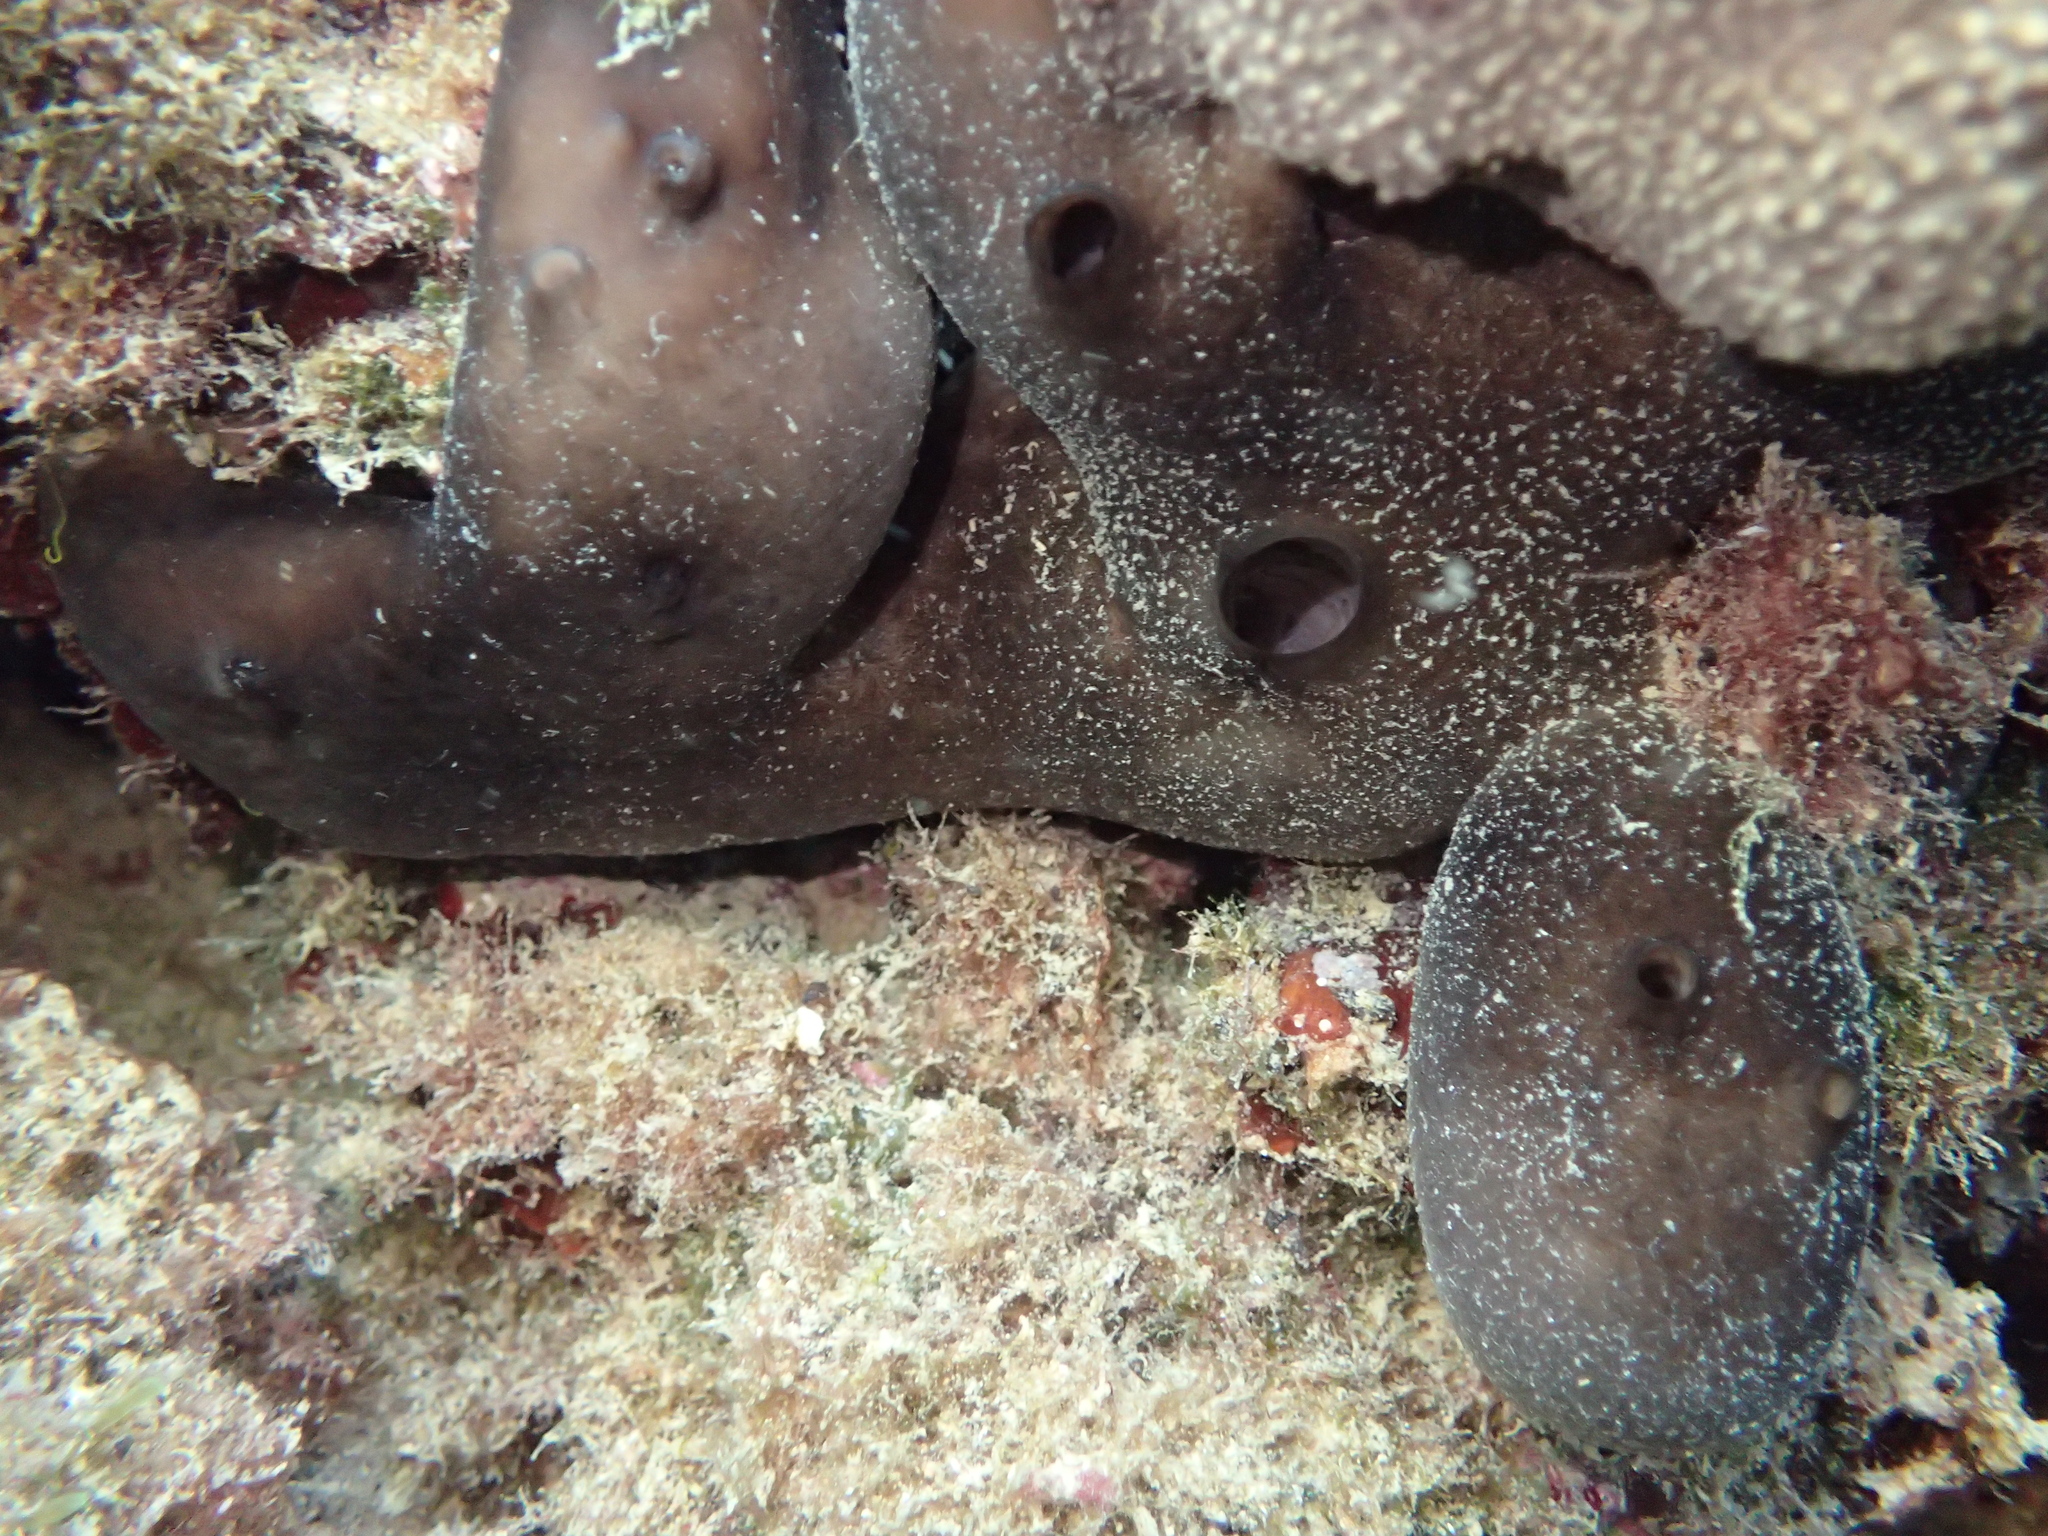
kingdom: Animalia
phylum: Porifera
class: Demospongiae
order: Chondrosiida
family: Chondrosiidae
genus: Chondrosia
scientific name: Chondrosia reniformis
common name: Chicken liver sponge
